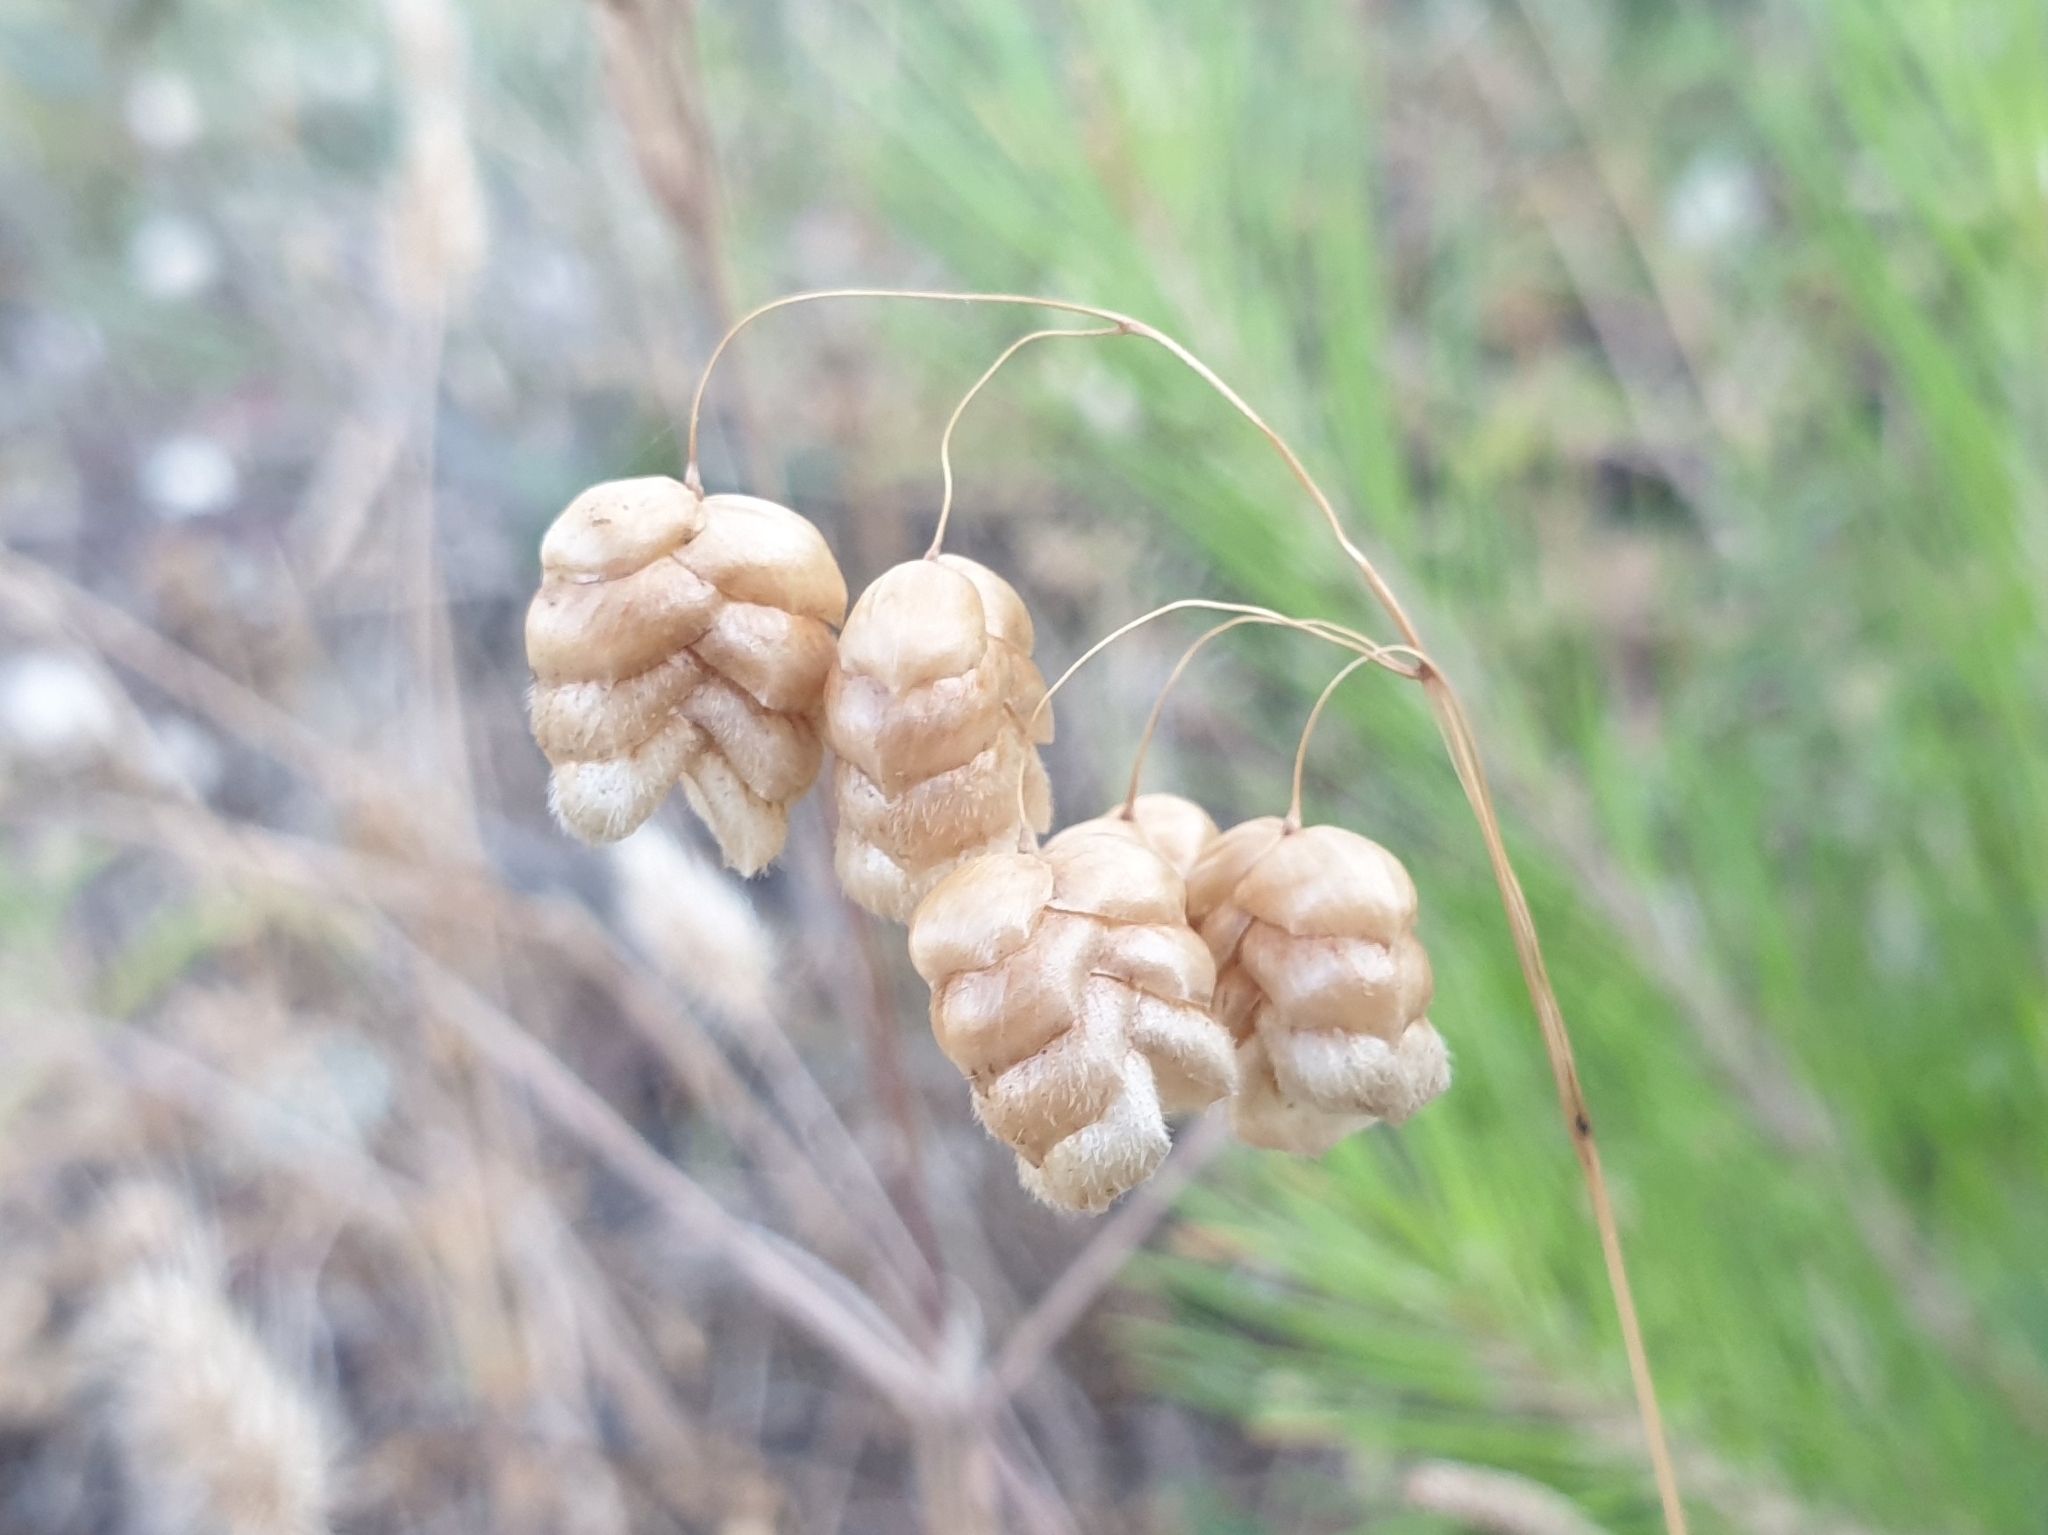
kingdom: Plantae
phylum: Tracheophyta
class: Liliopsida
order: Poales
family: Poaceae
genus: Briza
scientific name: Briza maxima
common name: Big quakinggrass
